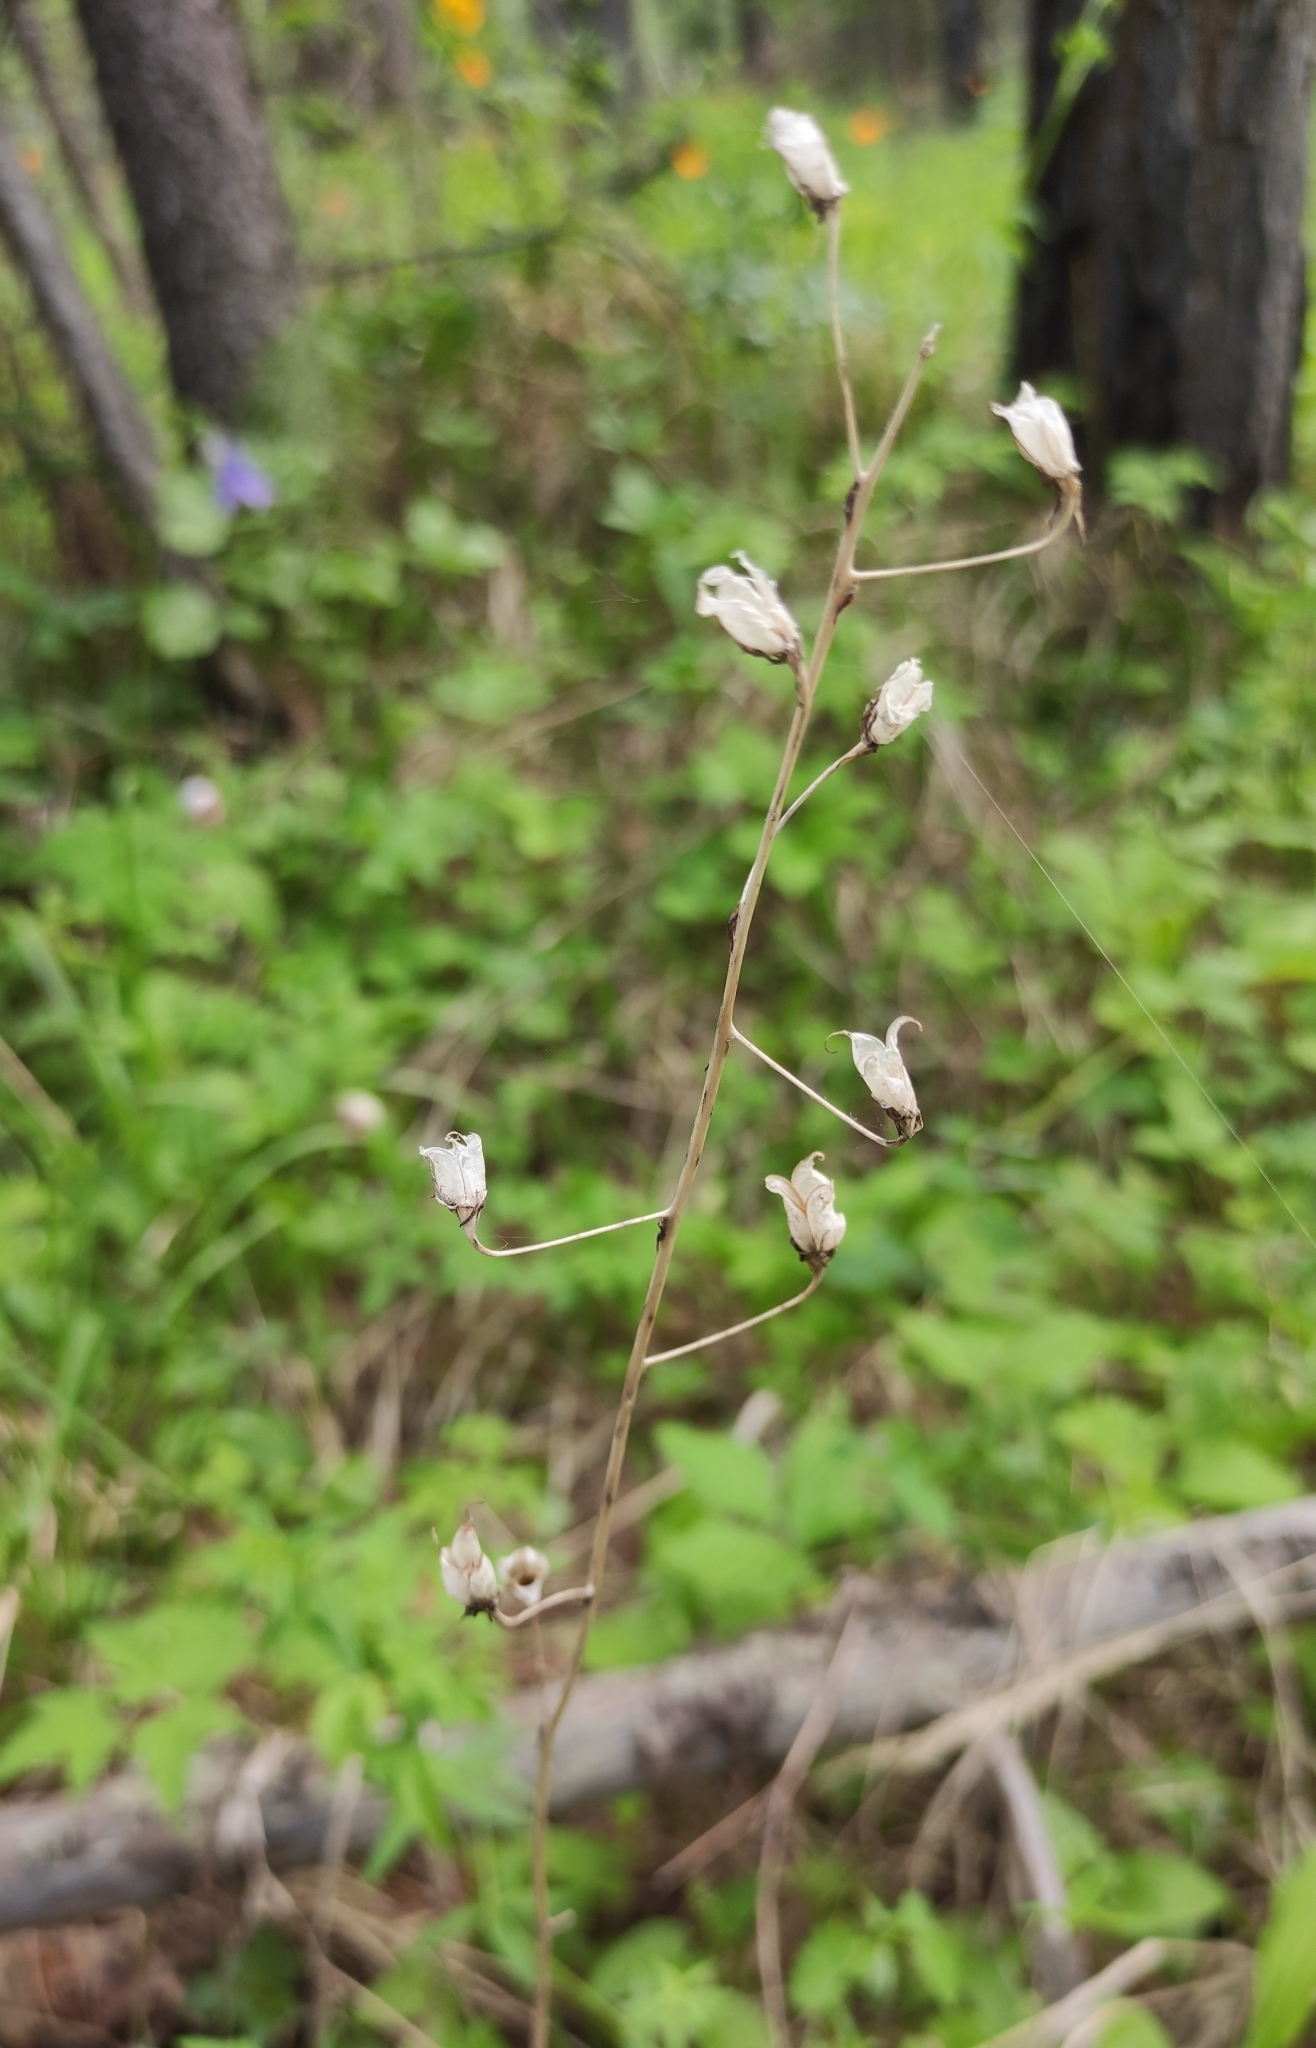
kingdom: Plantae
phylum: Tracheophyta
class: Liliopsida
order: Liliales
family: Melanthiaceae
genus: Anticlea
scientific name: Anticlea sibirica
